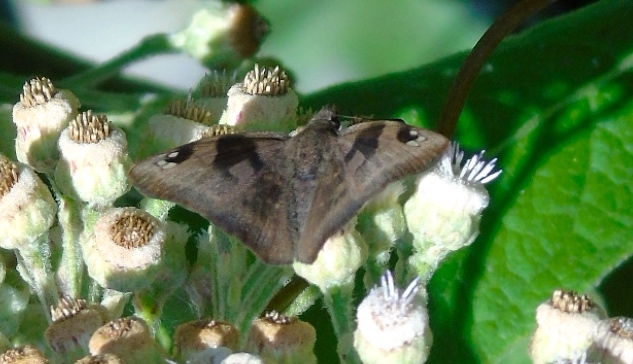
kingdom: Animalia
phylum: Arthropoda
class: Insecta
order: Lepidoptera
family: Hesperiidae
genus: Arteurotia
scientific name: Arteurotia tractipennis
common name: Starred skipper
